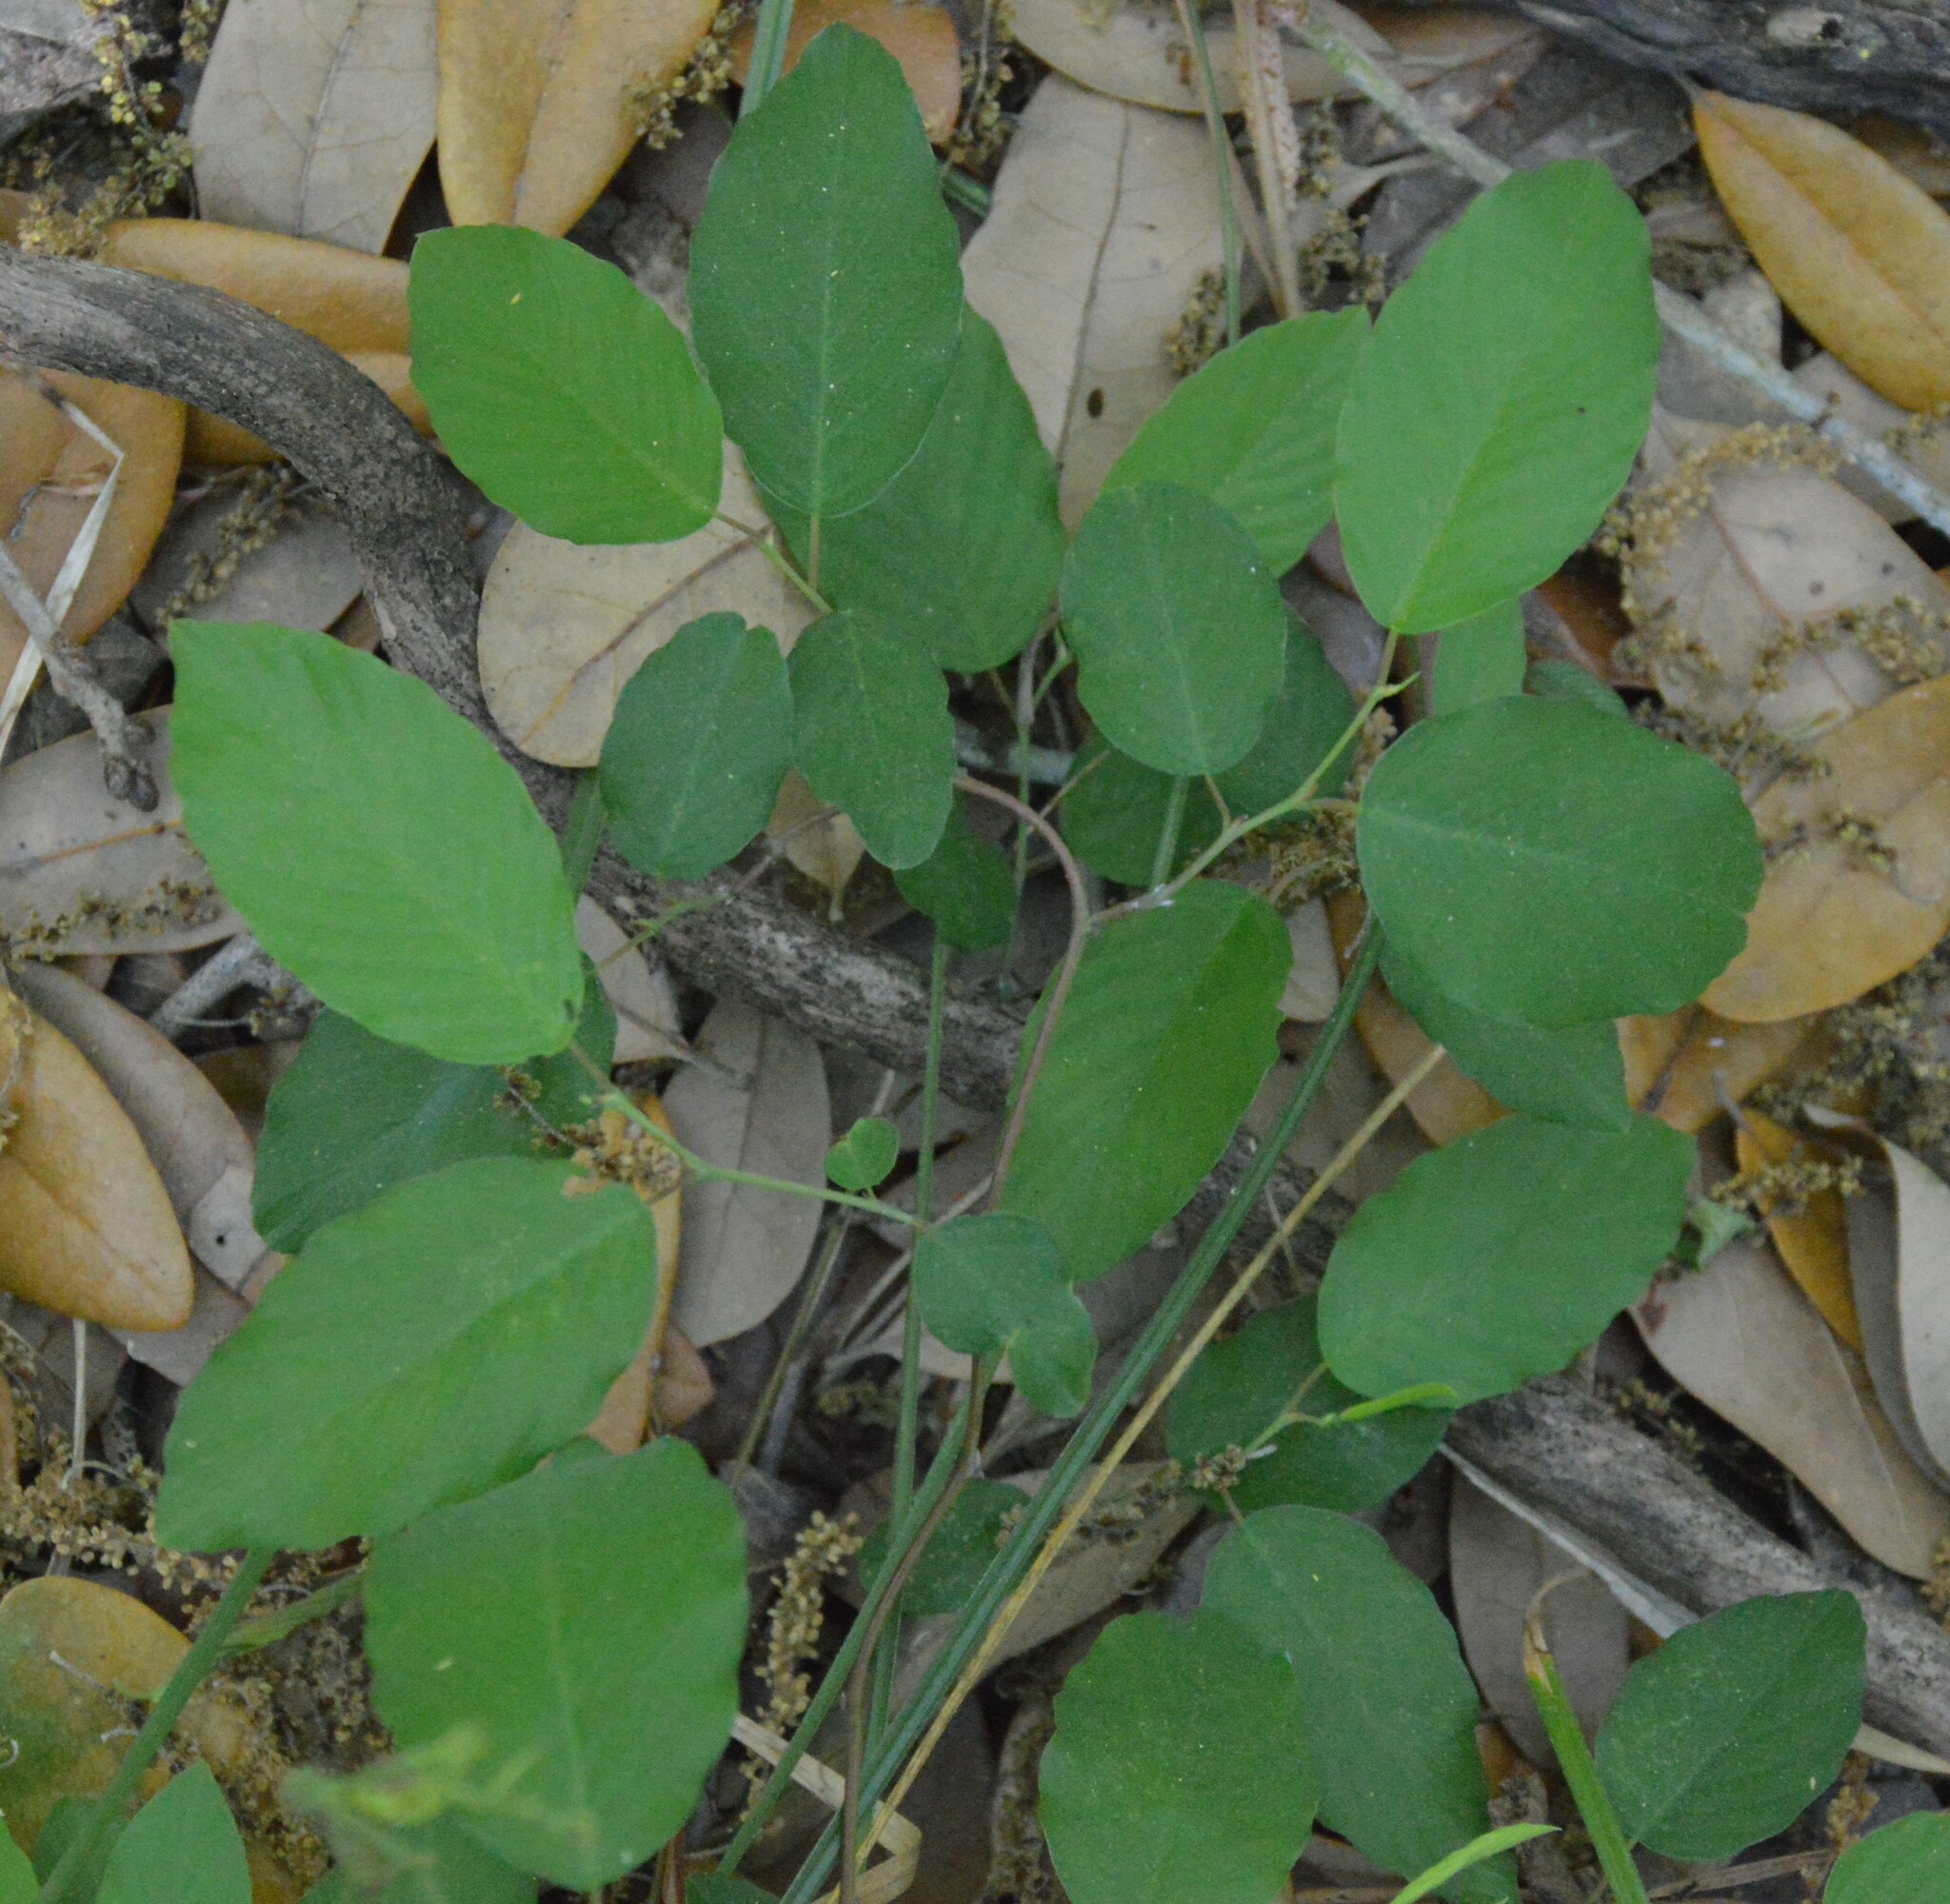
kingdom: Plantae
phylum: Tracheophyta
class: Magnoliopsida
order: Rosales
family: Rhamnaceae
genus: Berchemia
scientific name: Berchemia scandens
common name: Supplejack
